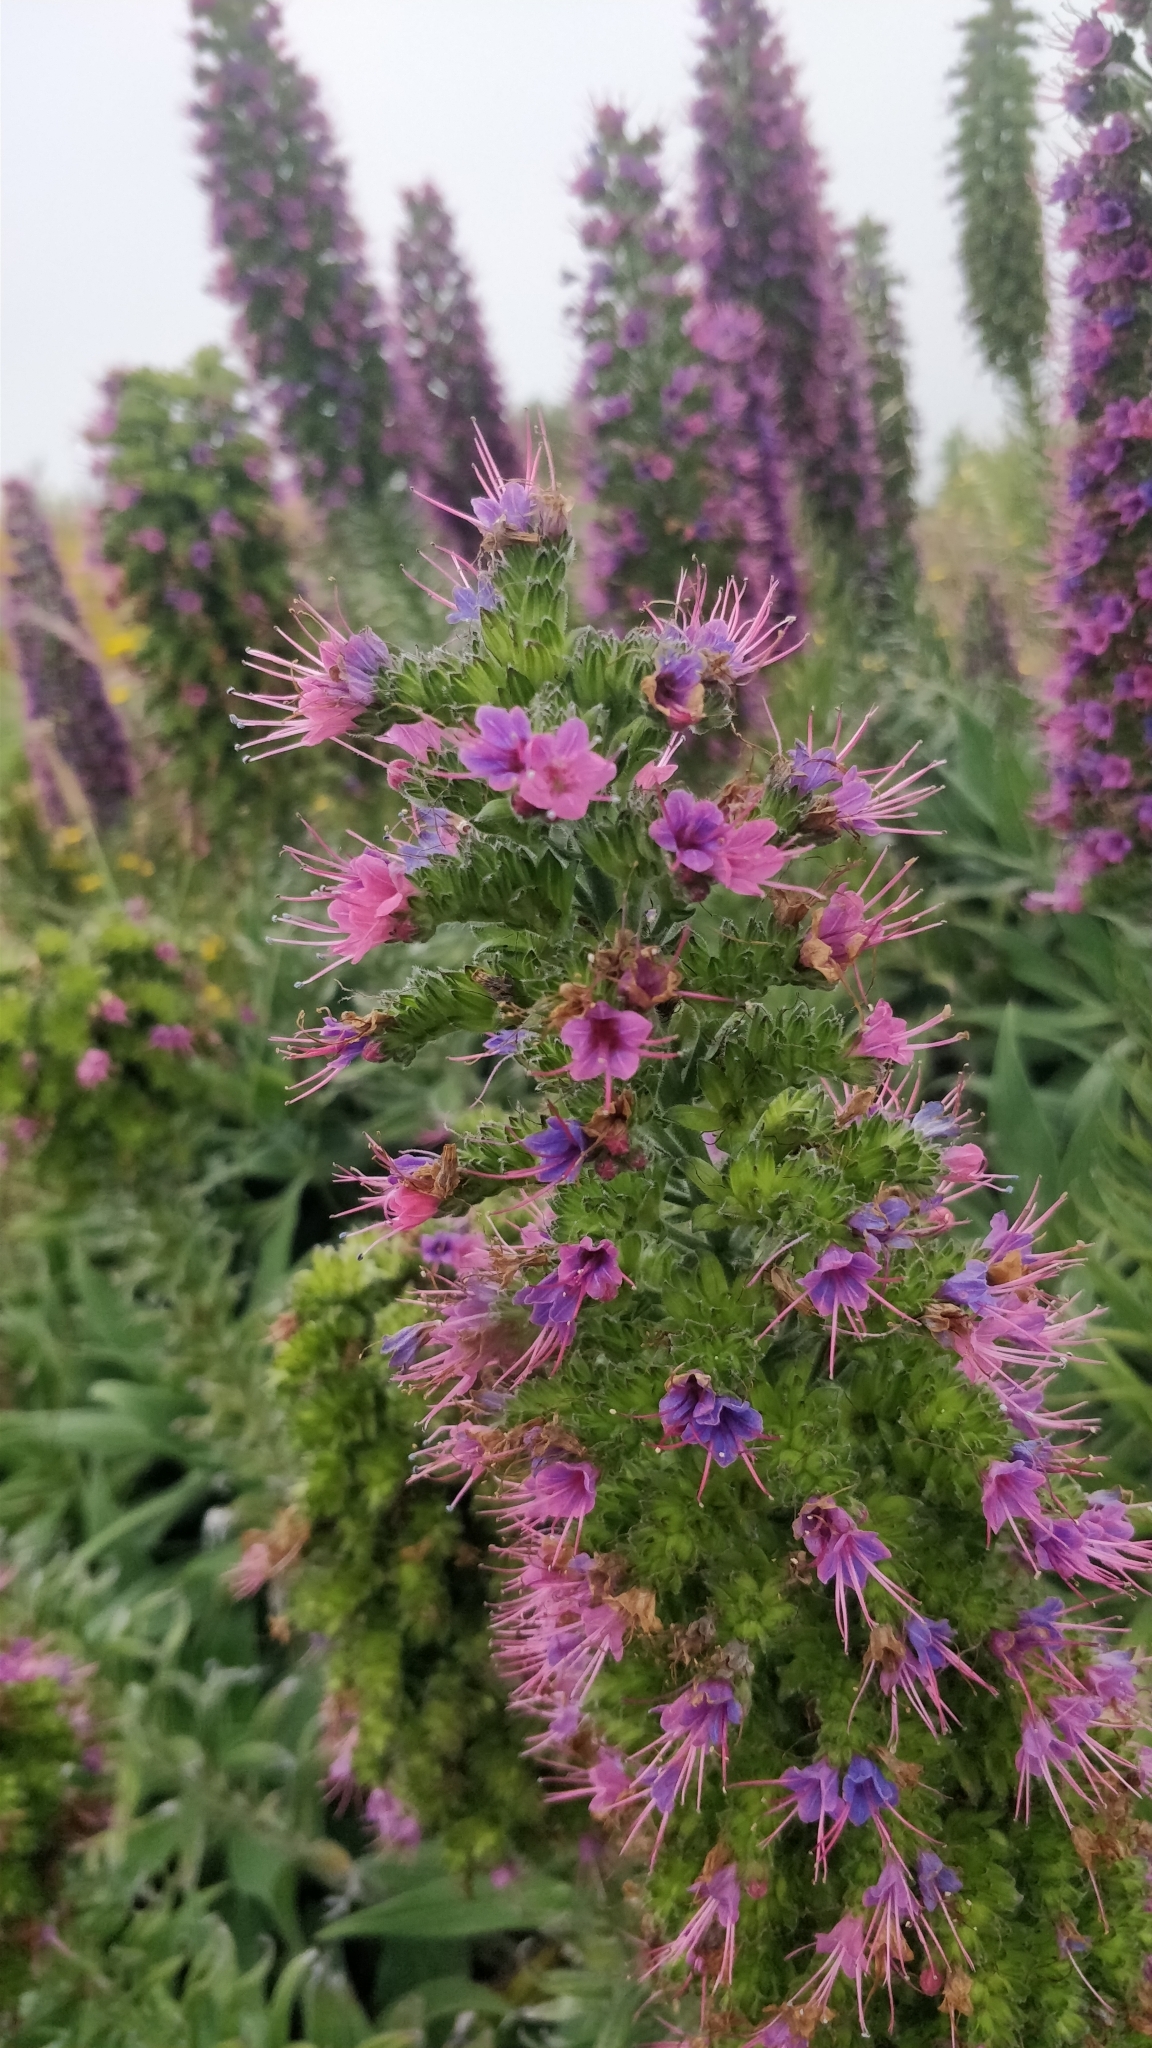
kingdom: Plantae
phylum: Tracheophyta
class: Magnoliopsida
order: Boraginales
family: Boraginaceae
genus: Echium
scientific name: Echium candicans
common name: Pride of madeira
